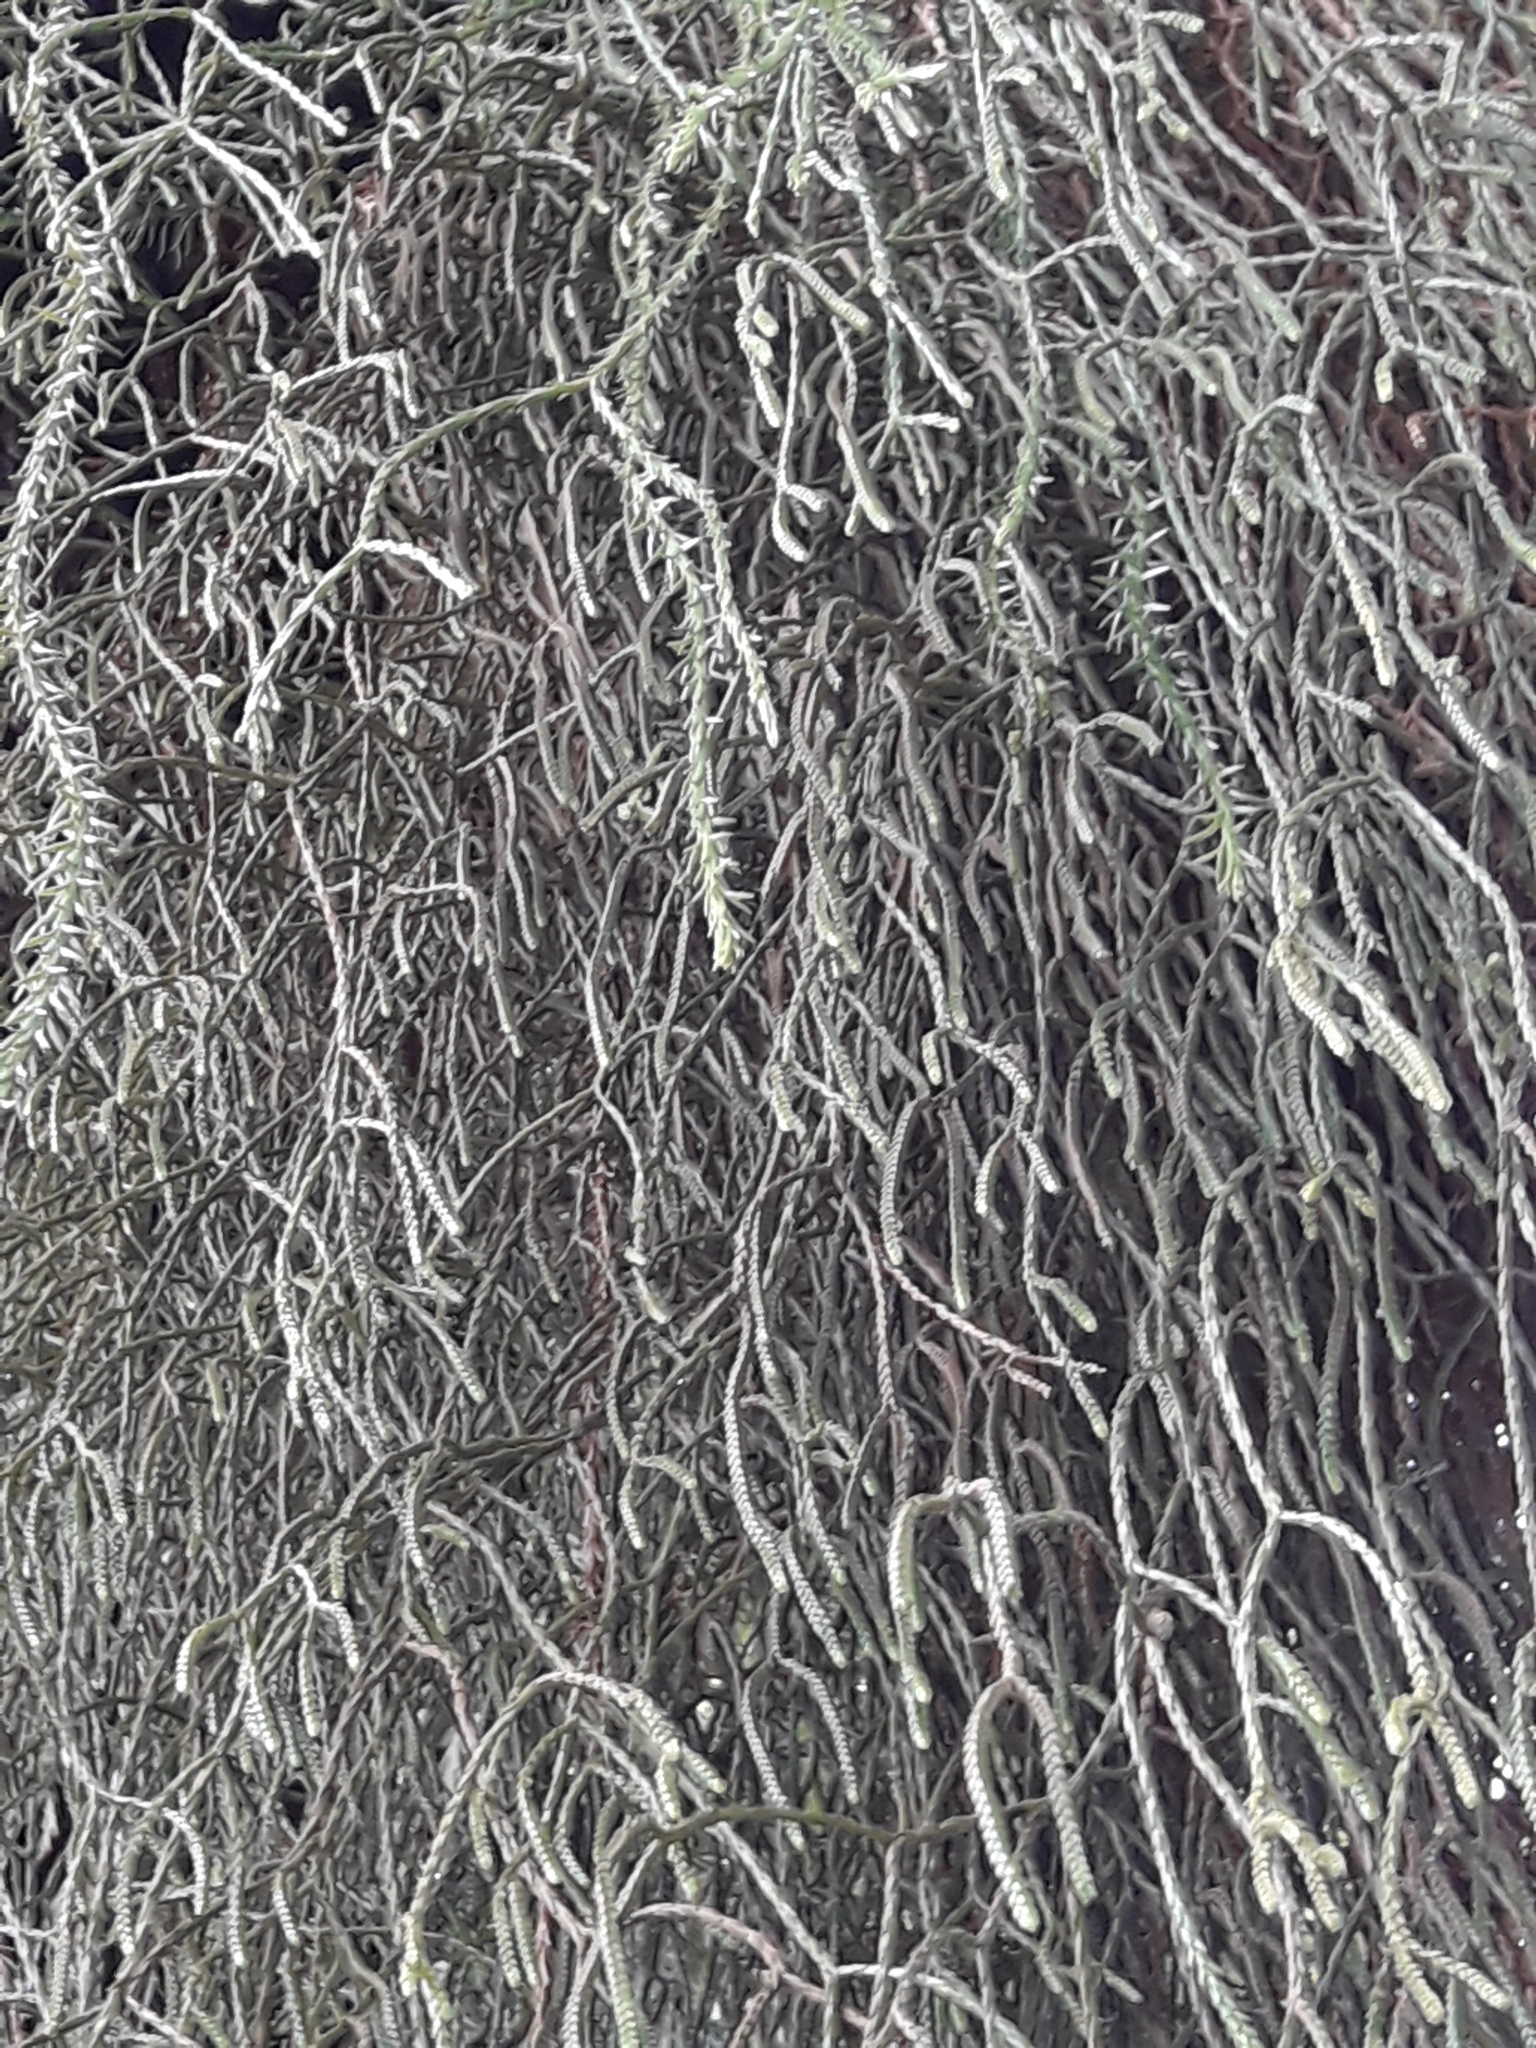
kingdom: Plantae
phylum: Tracheophyta
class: Lycopodiopsida
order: Lycopodiales
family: Lycopodiaceae
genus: Phlegmariurus
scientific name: Phlegmariurus billardierei
